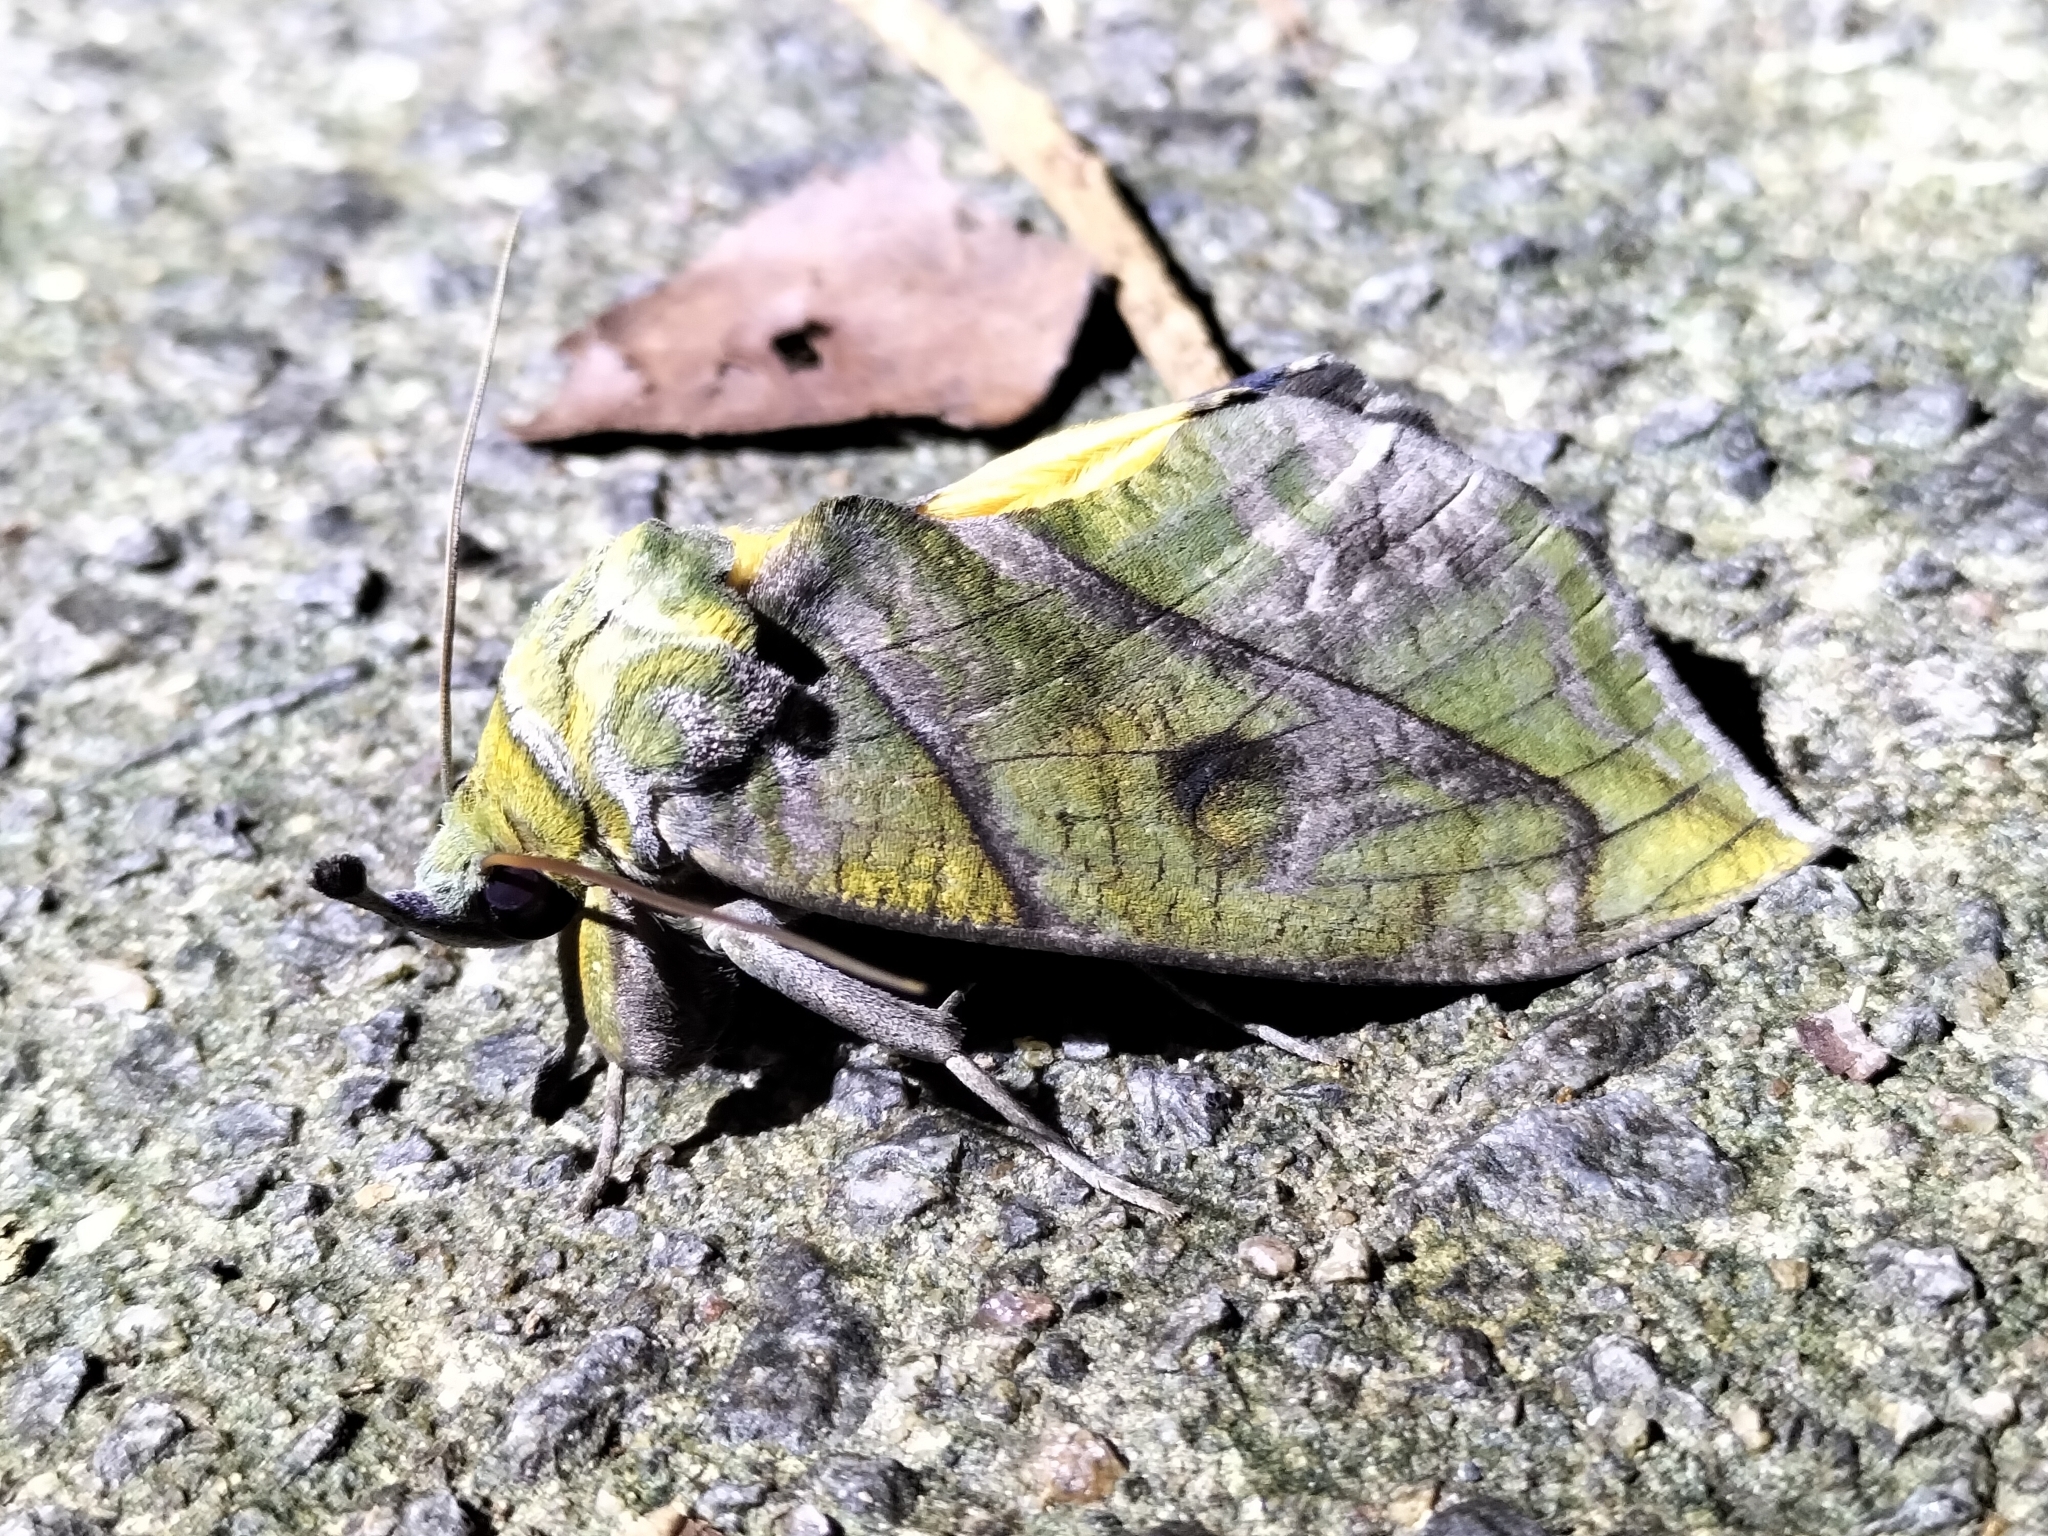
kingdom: Animalia
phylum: Arthropoda
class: Insecta
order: Lepidoptera
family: Erebidae
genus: Eudocima
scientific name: Eudocima cocalus
